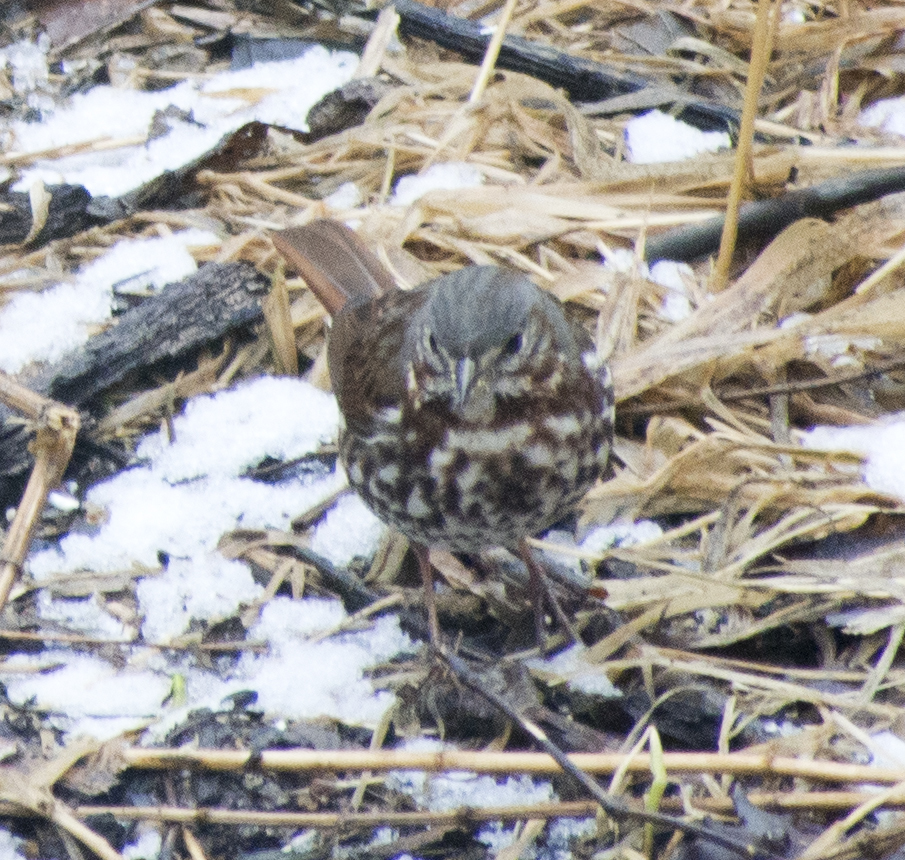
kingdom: Animalia
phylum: Chordata
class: Aves
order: Passeriformes
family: Passerellidae
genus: Passerella
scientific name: Passerella iliaca
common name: Fox sparrow
